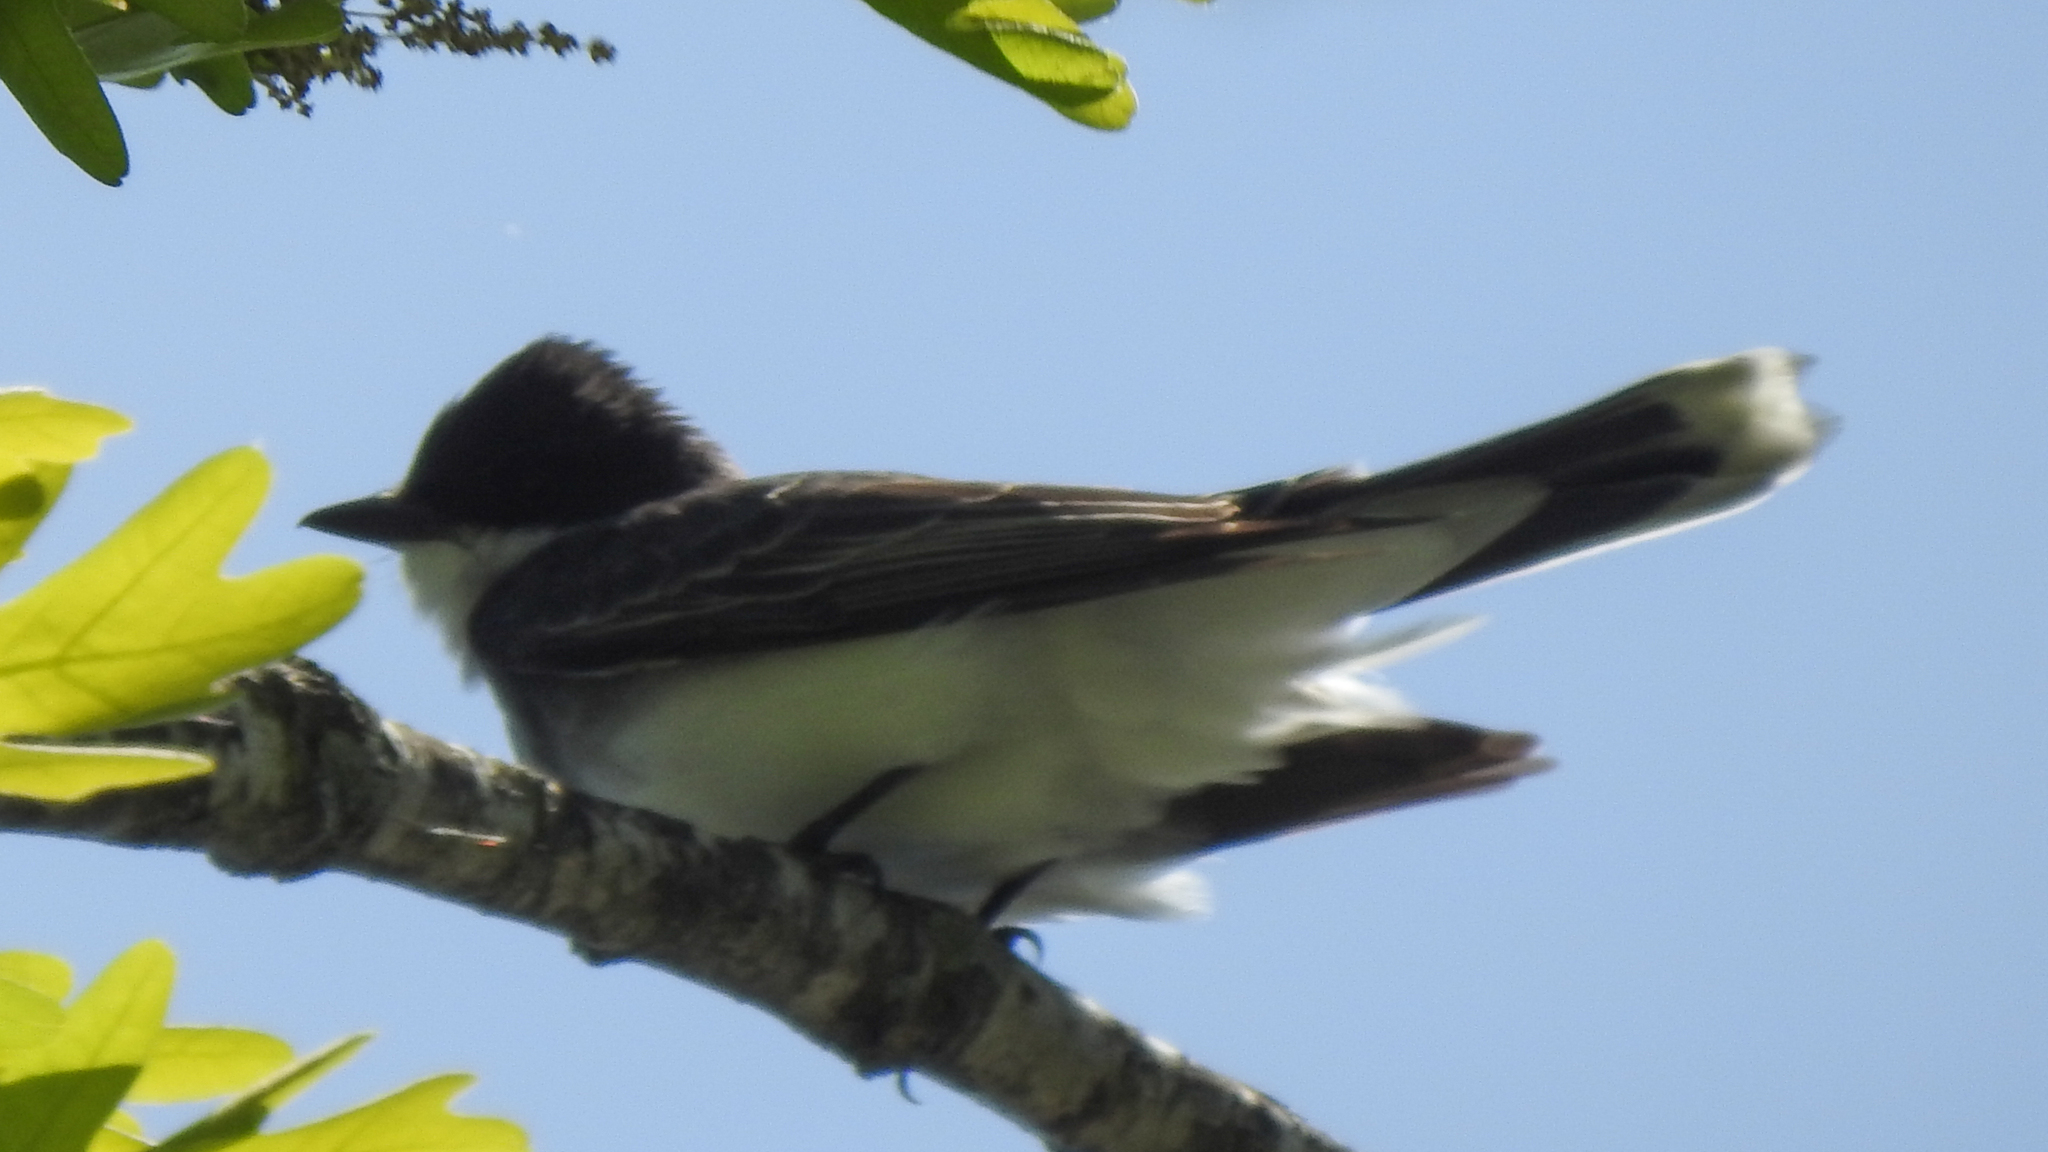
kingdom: Animalia
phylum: Chordata
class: Aves
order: Passeriformes
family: Tyrannidae
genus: Tyrannus
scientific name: Tyrannus tyrannus
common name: Eastern kingbird
